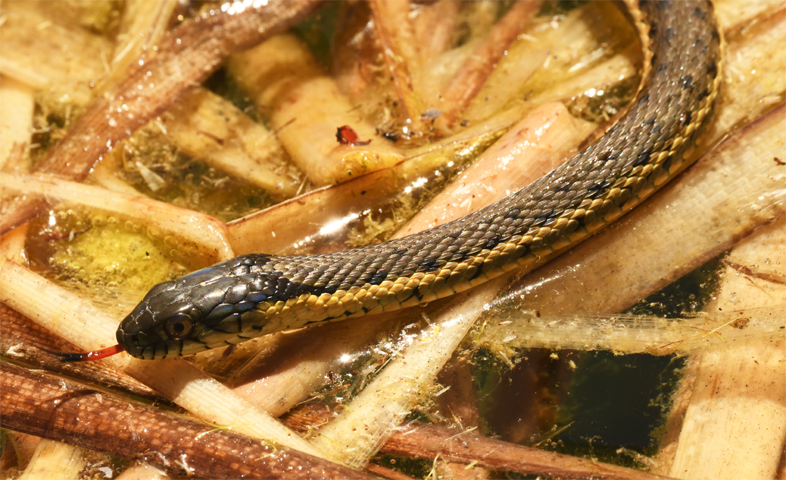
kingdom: Animalia
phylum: Chordata
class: Squamata
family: Colubridae
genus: Thamnophis
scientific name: Thamnophis hammondii
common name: Two-striped garter snake
